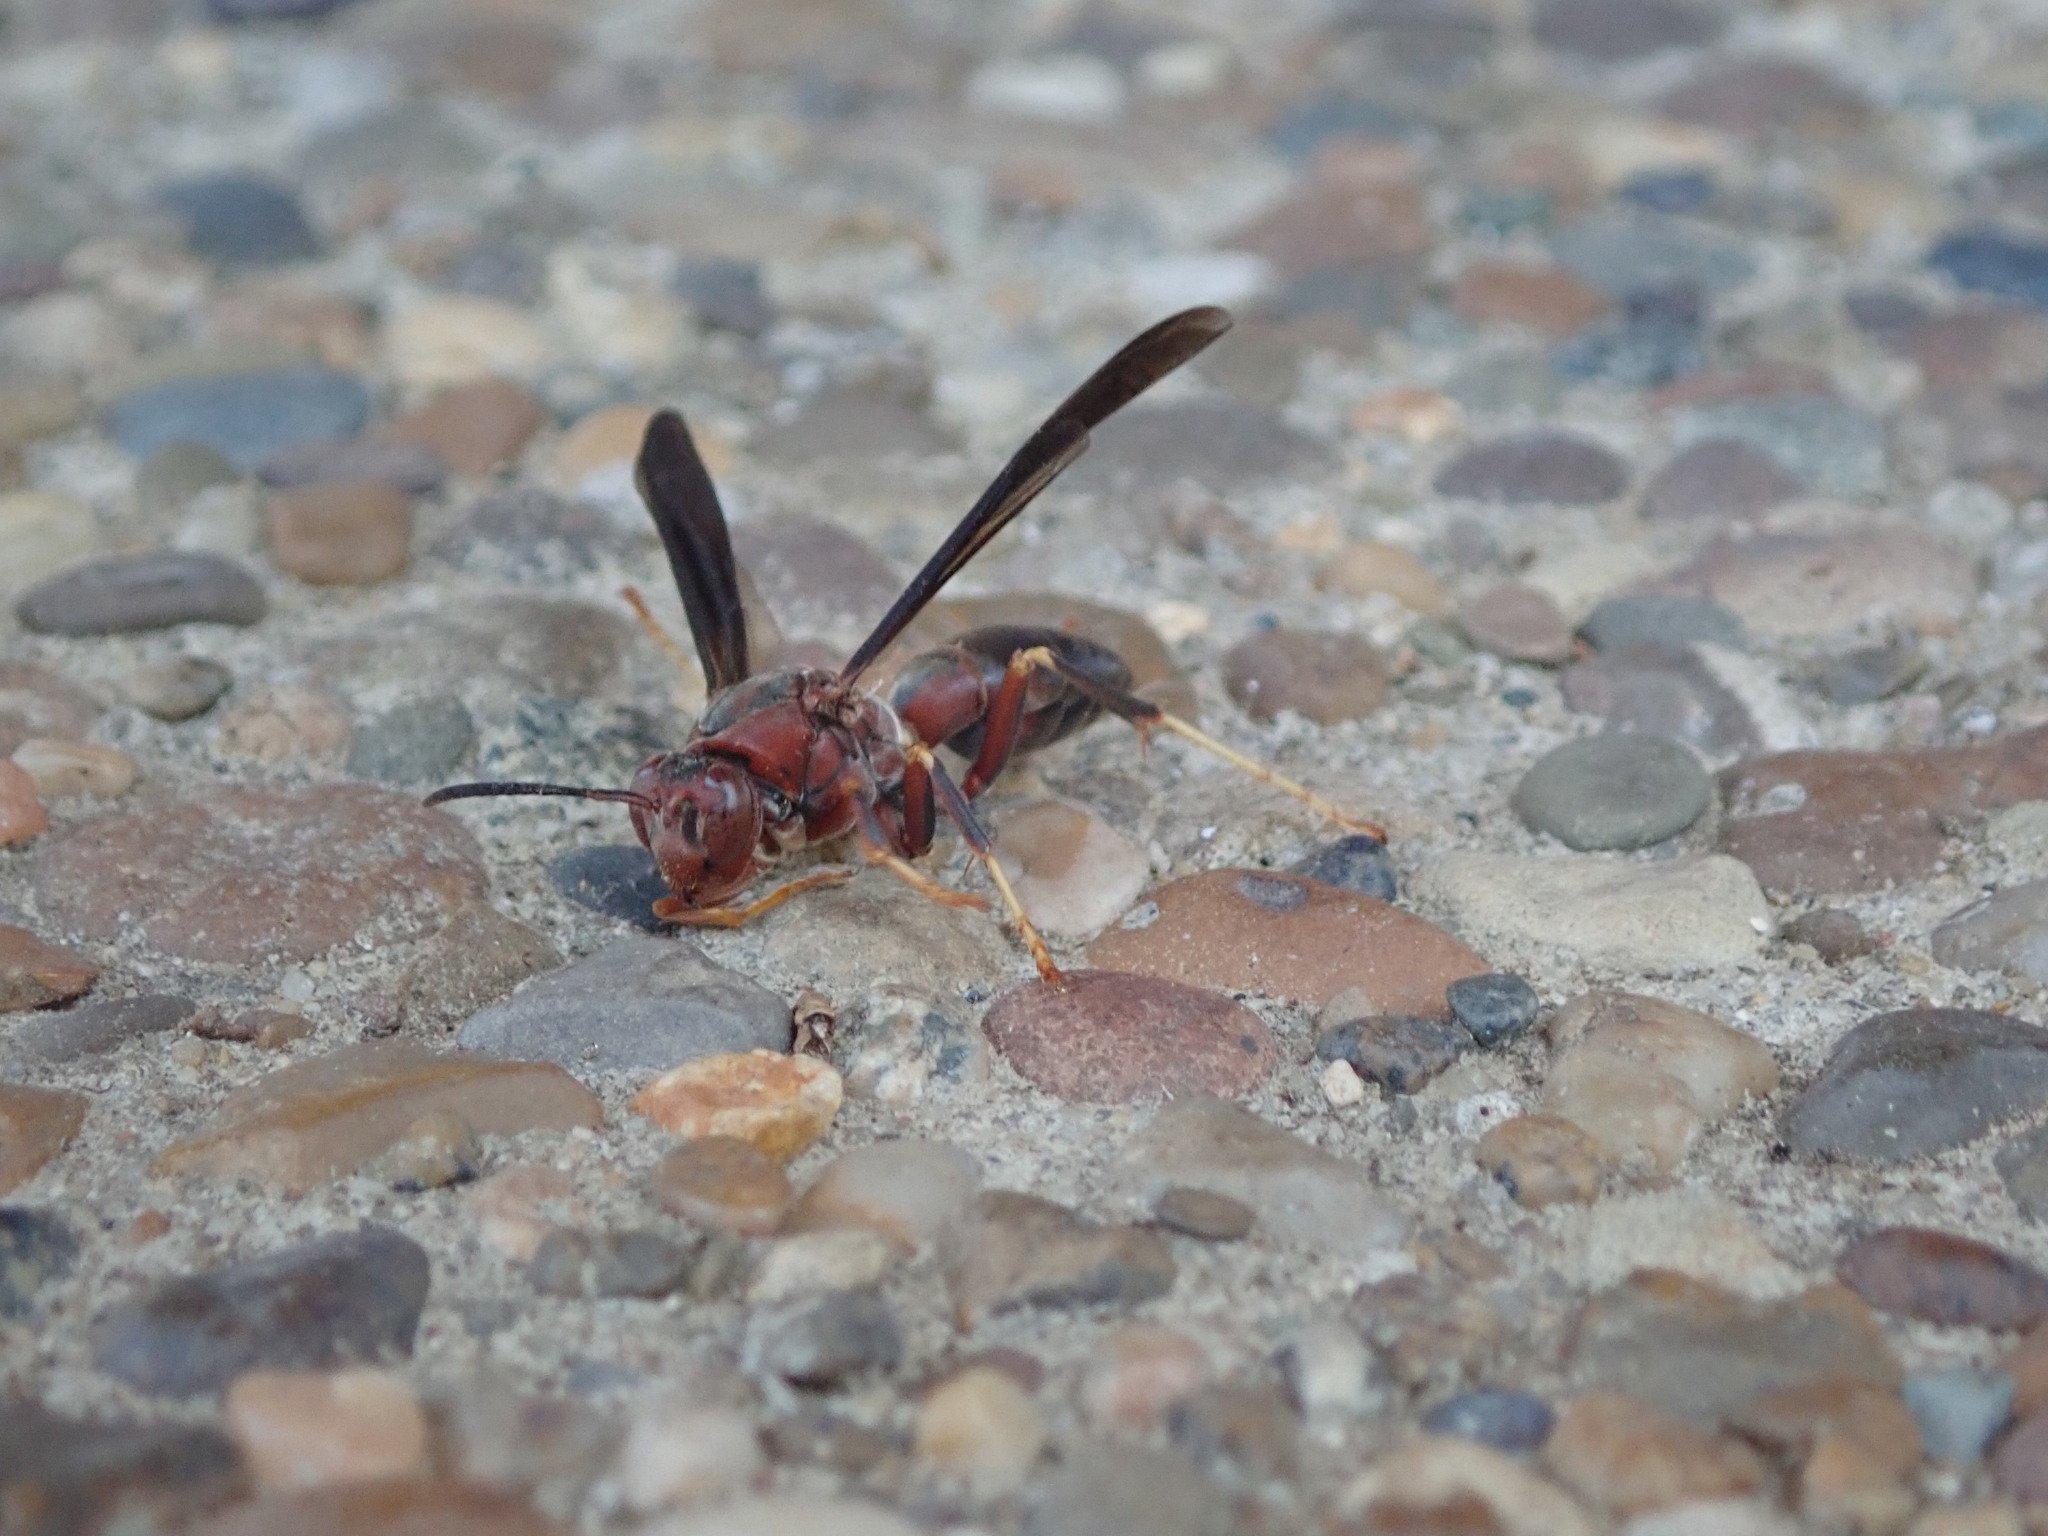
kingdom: Animalia
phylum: Arthropoda
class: Insecta
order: Hymenoptera
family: Eumenidae
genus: Polistes
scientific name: Polistes metricus
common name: Metric paper wasp
